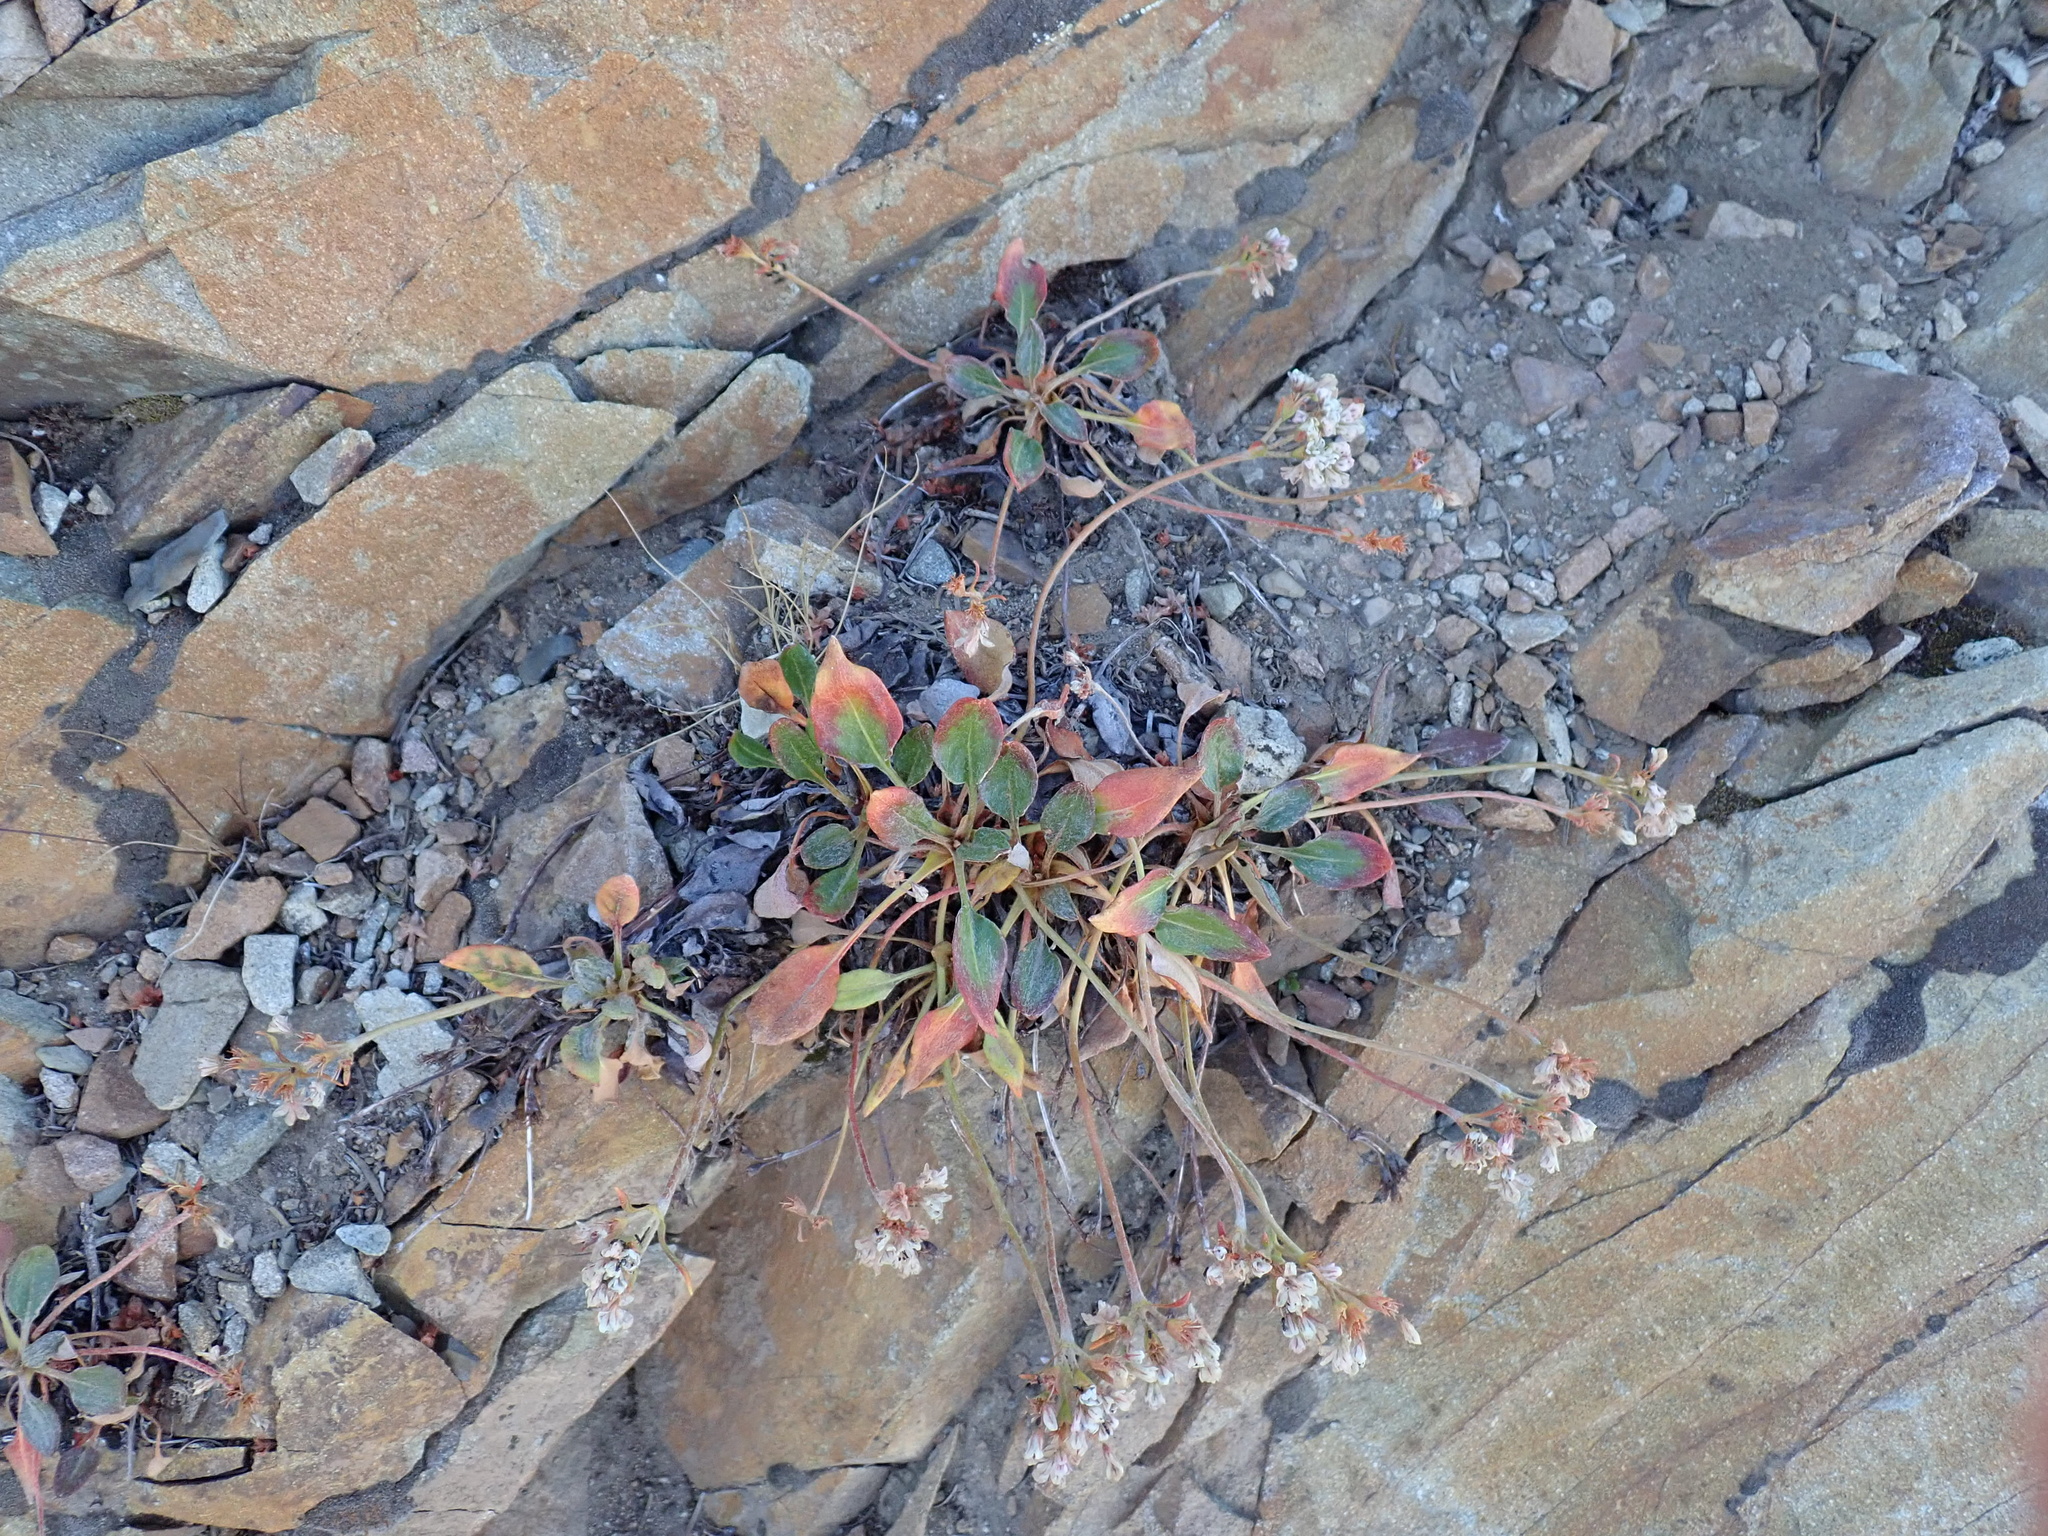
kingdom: Plantae
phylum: Tracheophyta
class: Magnoliopsida
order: Caryophyllales
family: Polygonaceae
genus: Eriogonum
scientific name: Eriogonum pyrolifolium
